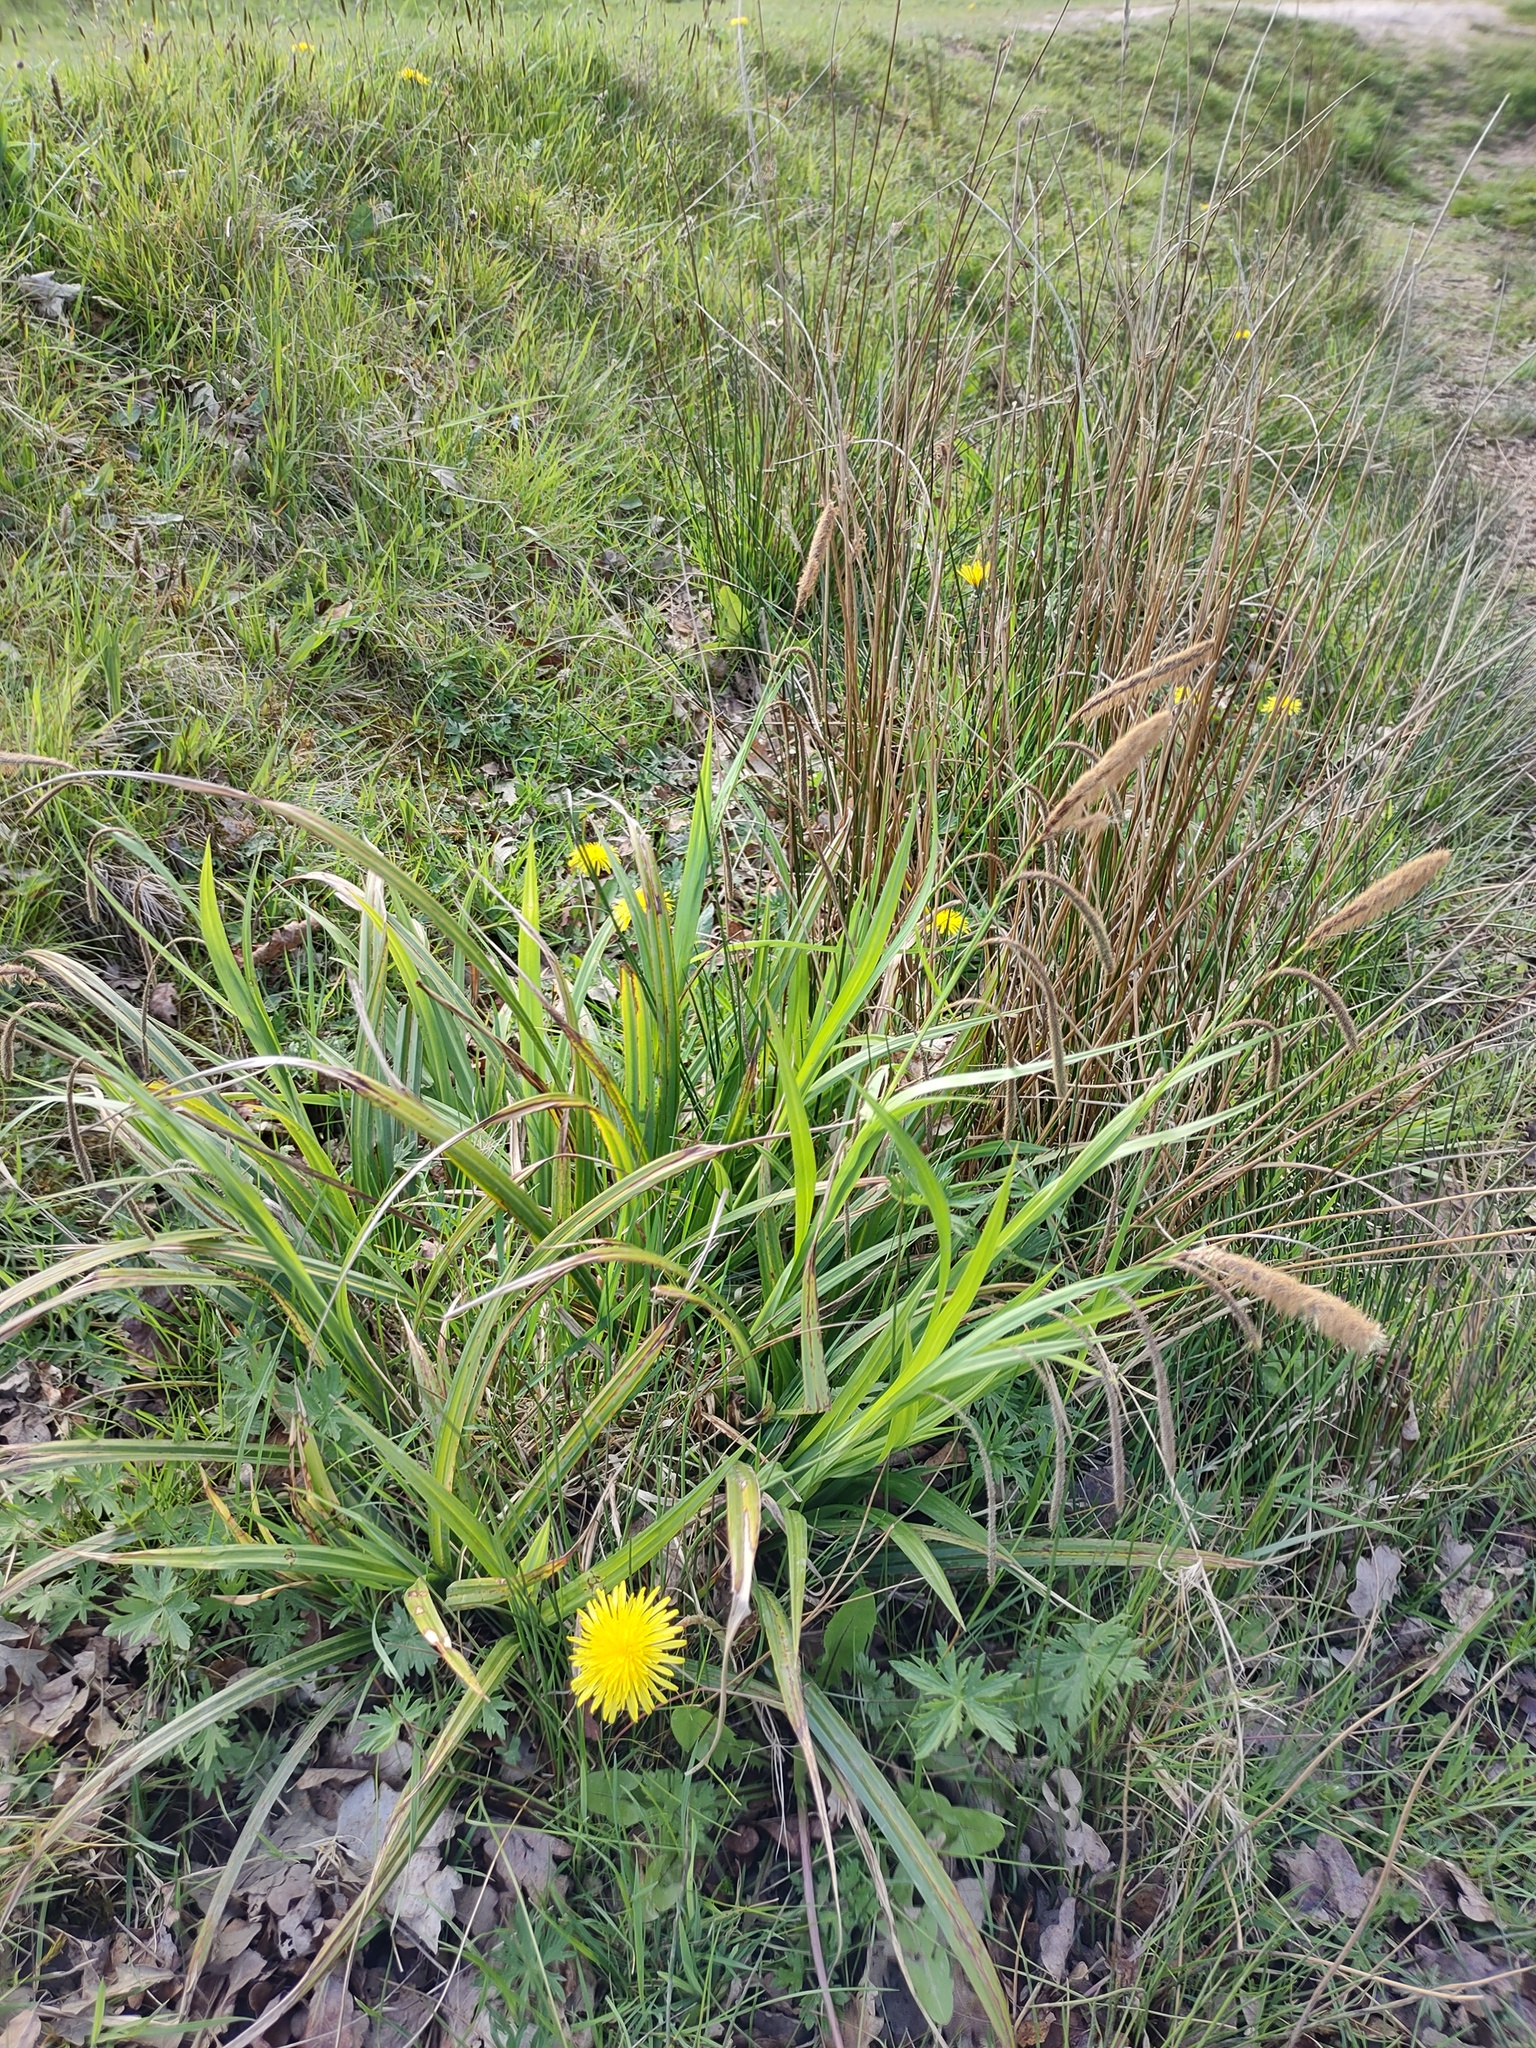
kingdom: Plantae
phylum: Tracheophyta
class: Liliopsida
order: Poales
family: Cyperaceae
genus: Carex
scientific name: Carex pendula
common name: Pendulous sedge
